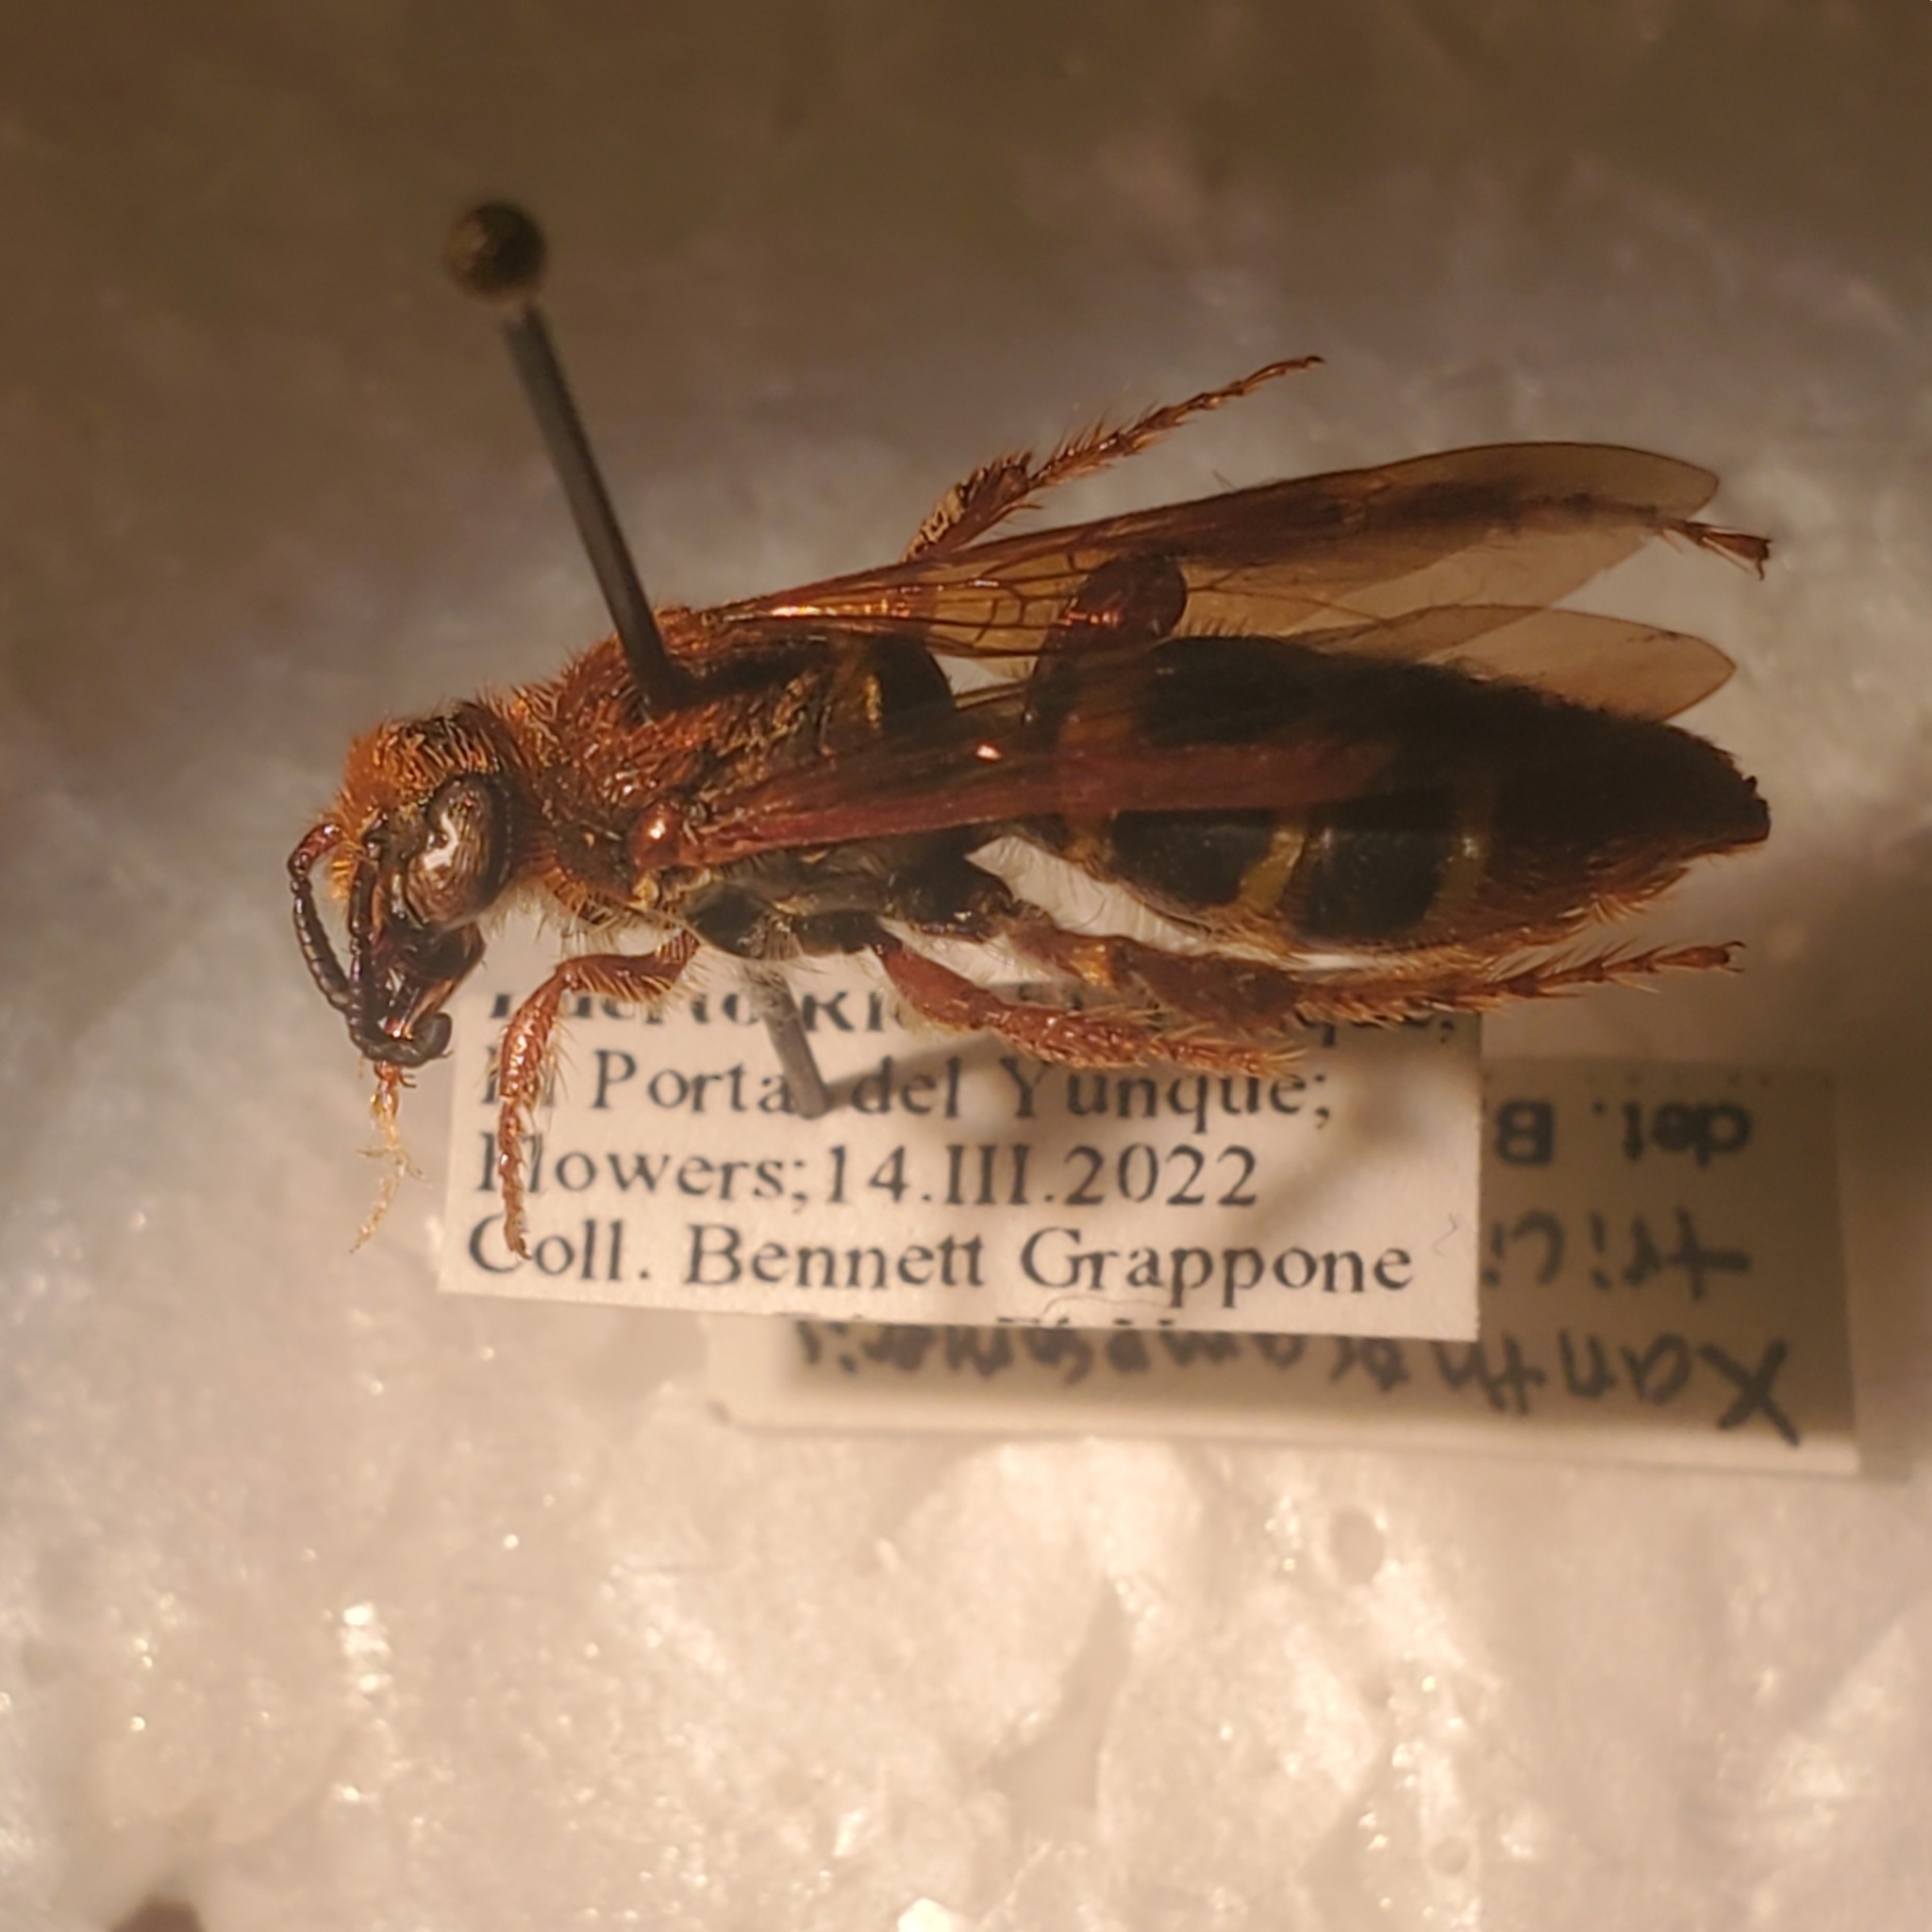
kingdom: Animalia
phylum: Arthropoda
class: Insecta
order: Hymenoptera
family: Scoliidae
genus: Xanthocampsomeris
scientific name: Xanthocampsomeris
